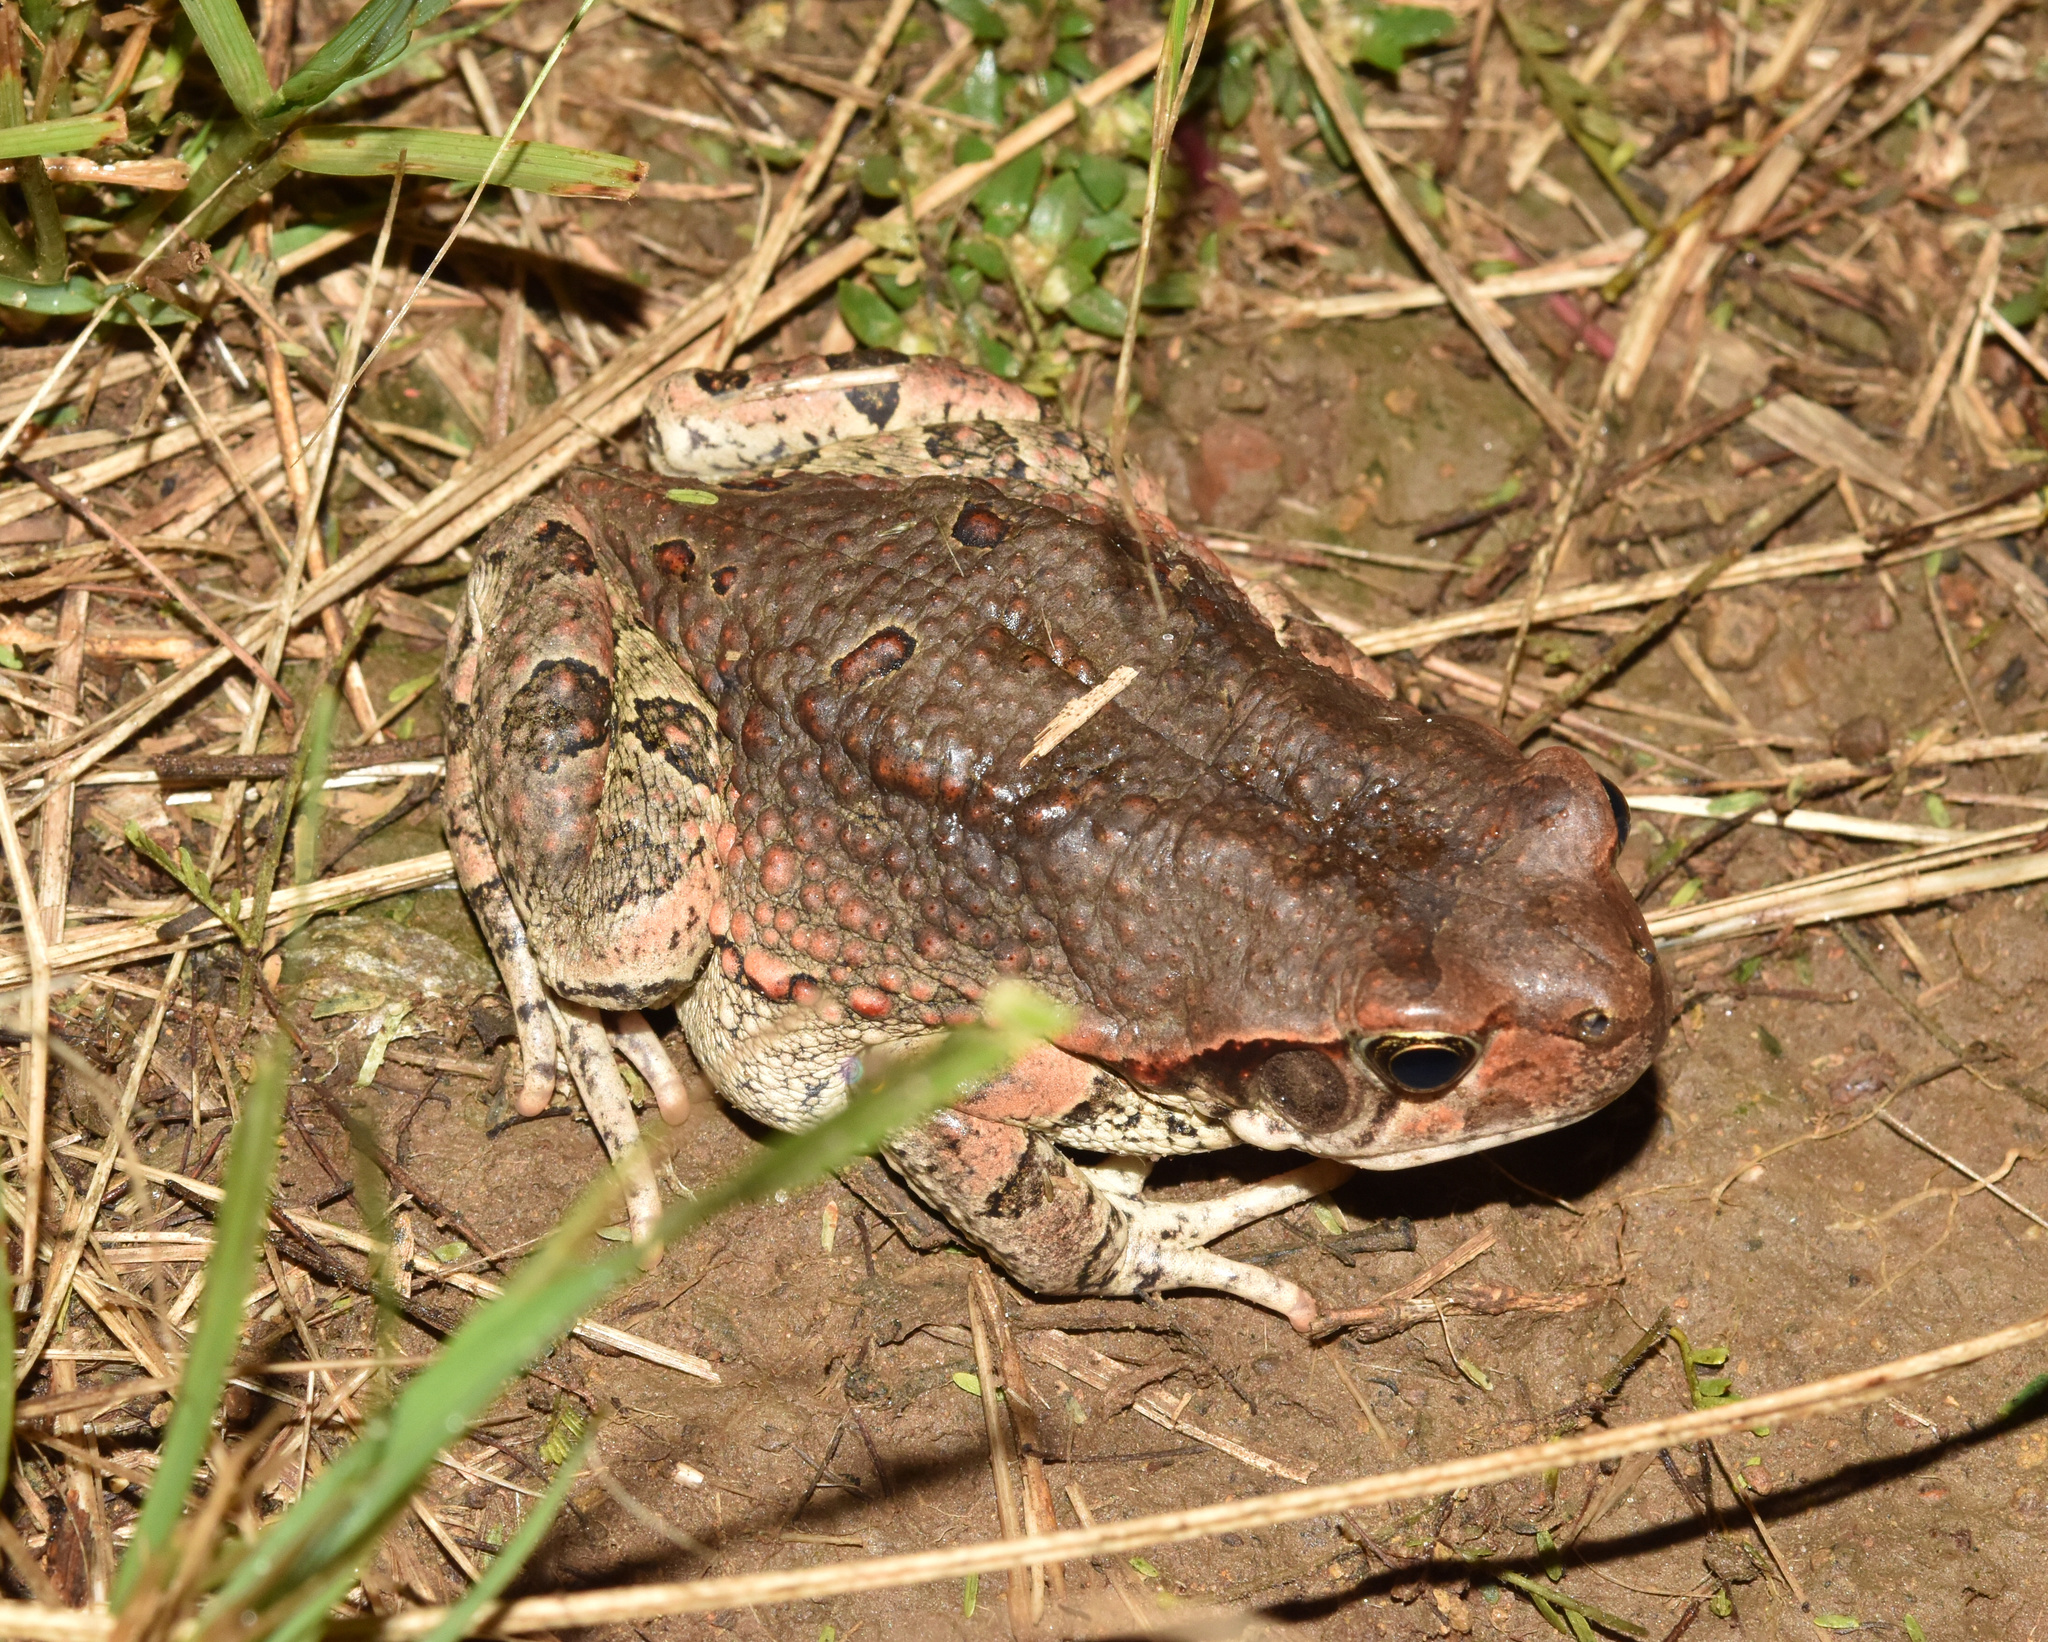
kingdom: Animalia
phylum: Chordata
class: Amphibia
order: Anura
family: Bufonidae
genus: Schismaderma
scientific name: Schismaderma carens
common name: African split-skin toad
